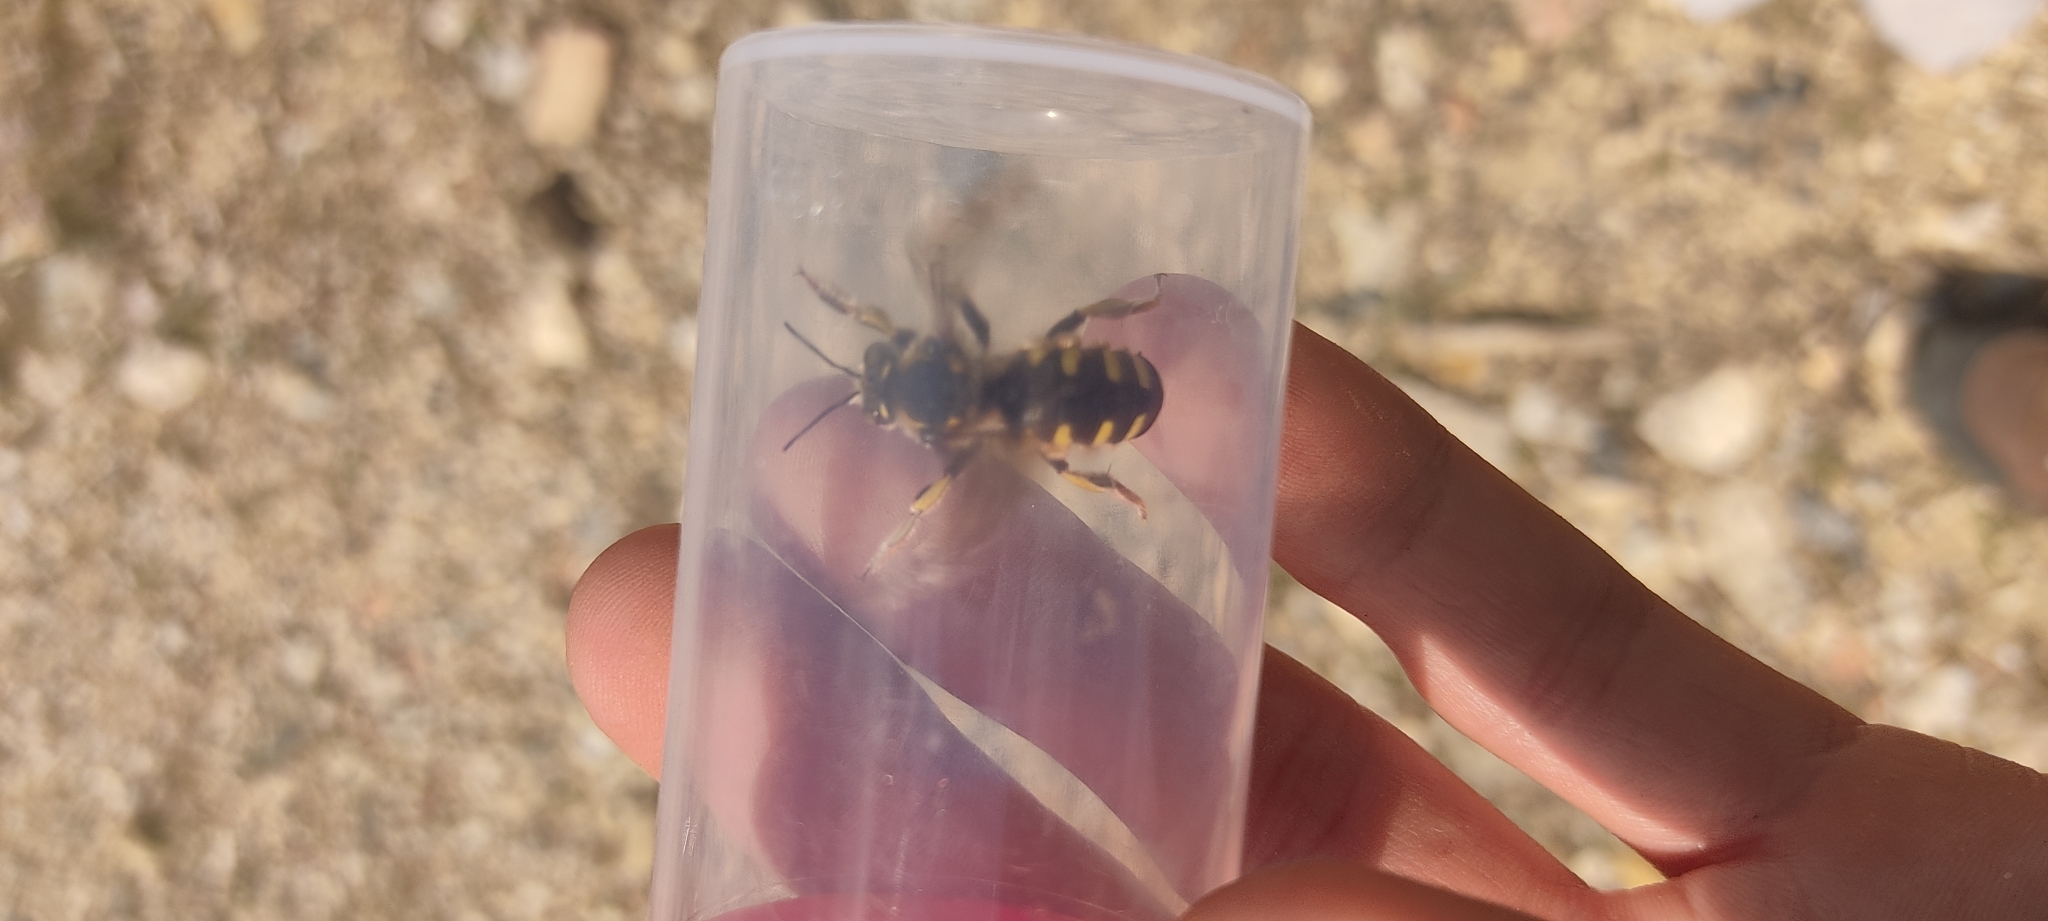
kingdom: Animalia
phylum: Arthropoda
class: Insecta
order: Hymenoptera
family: Megachilidae
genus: Anthidium
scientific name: Anthidium florentinum
